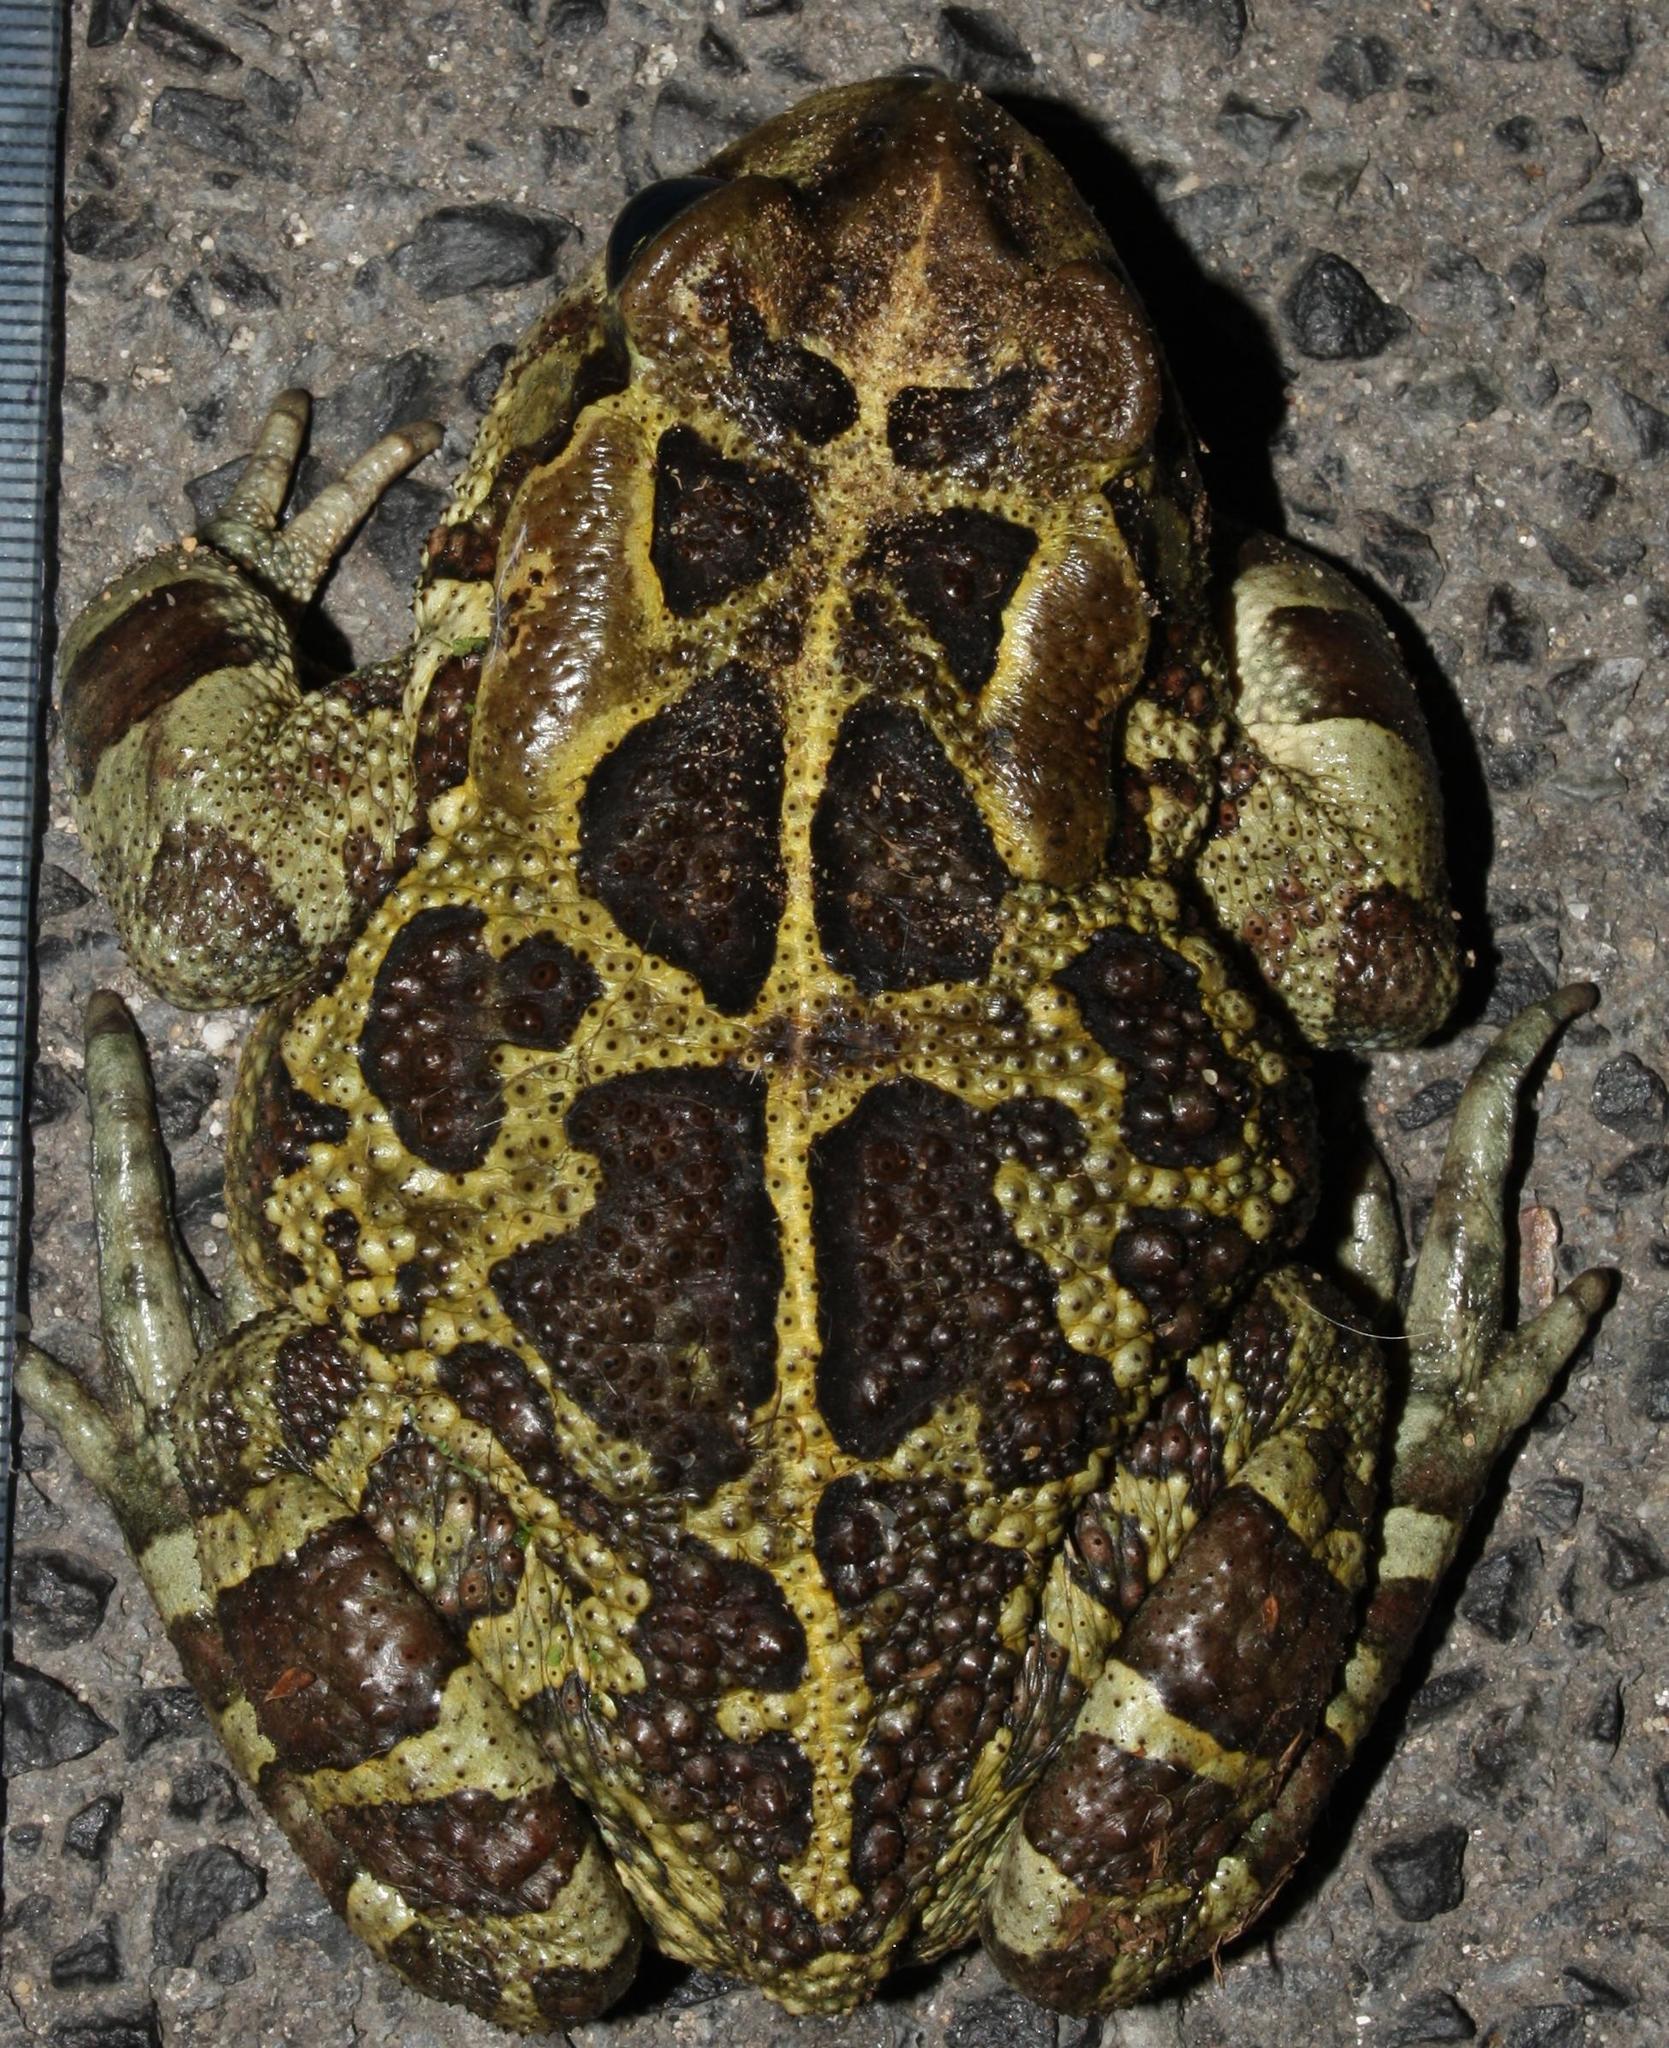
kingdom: Animalia
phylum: Chordata
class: Amphibia
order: Anura
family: Bufonidae
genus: Sclerophrys
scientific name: Sclerophrys pantherina
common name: Panther toad
